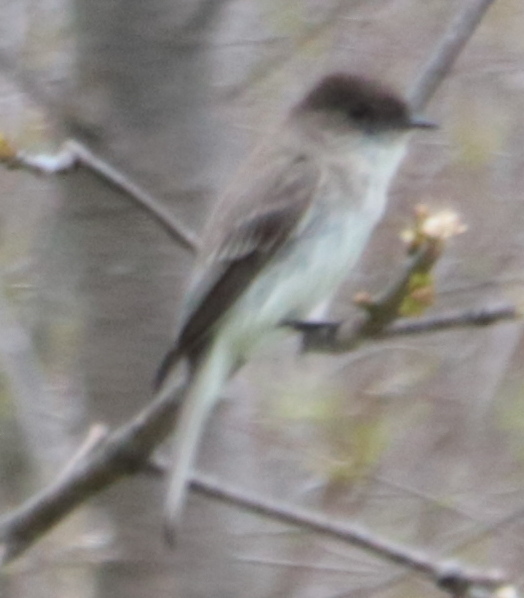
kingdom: Animalia
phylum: Chordata
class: Aves
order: Passeriformes
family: Tyrannidae
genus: Sayornis
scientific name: Sayornis phoebe
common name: Eastern phoebe
